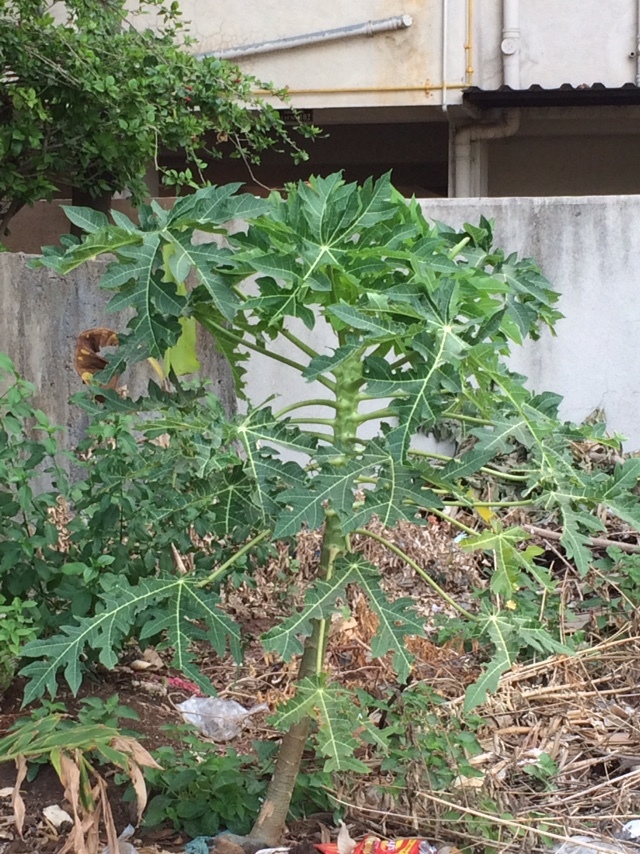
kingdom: Plantae
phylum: Tracheophyta
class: Magnoliopsida
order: Brassicales
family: Caricaceae
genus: Carica
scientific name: Carica papaya
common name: Papaya
